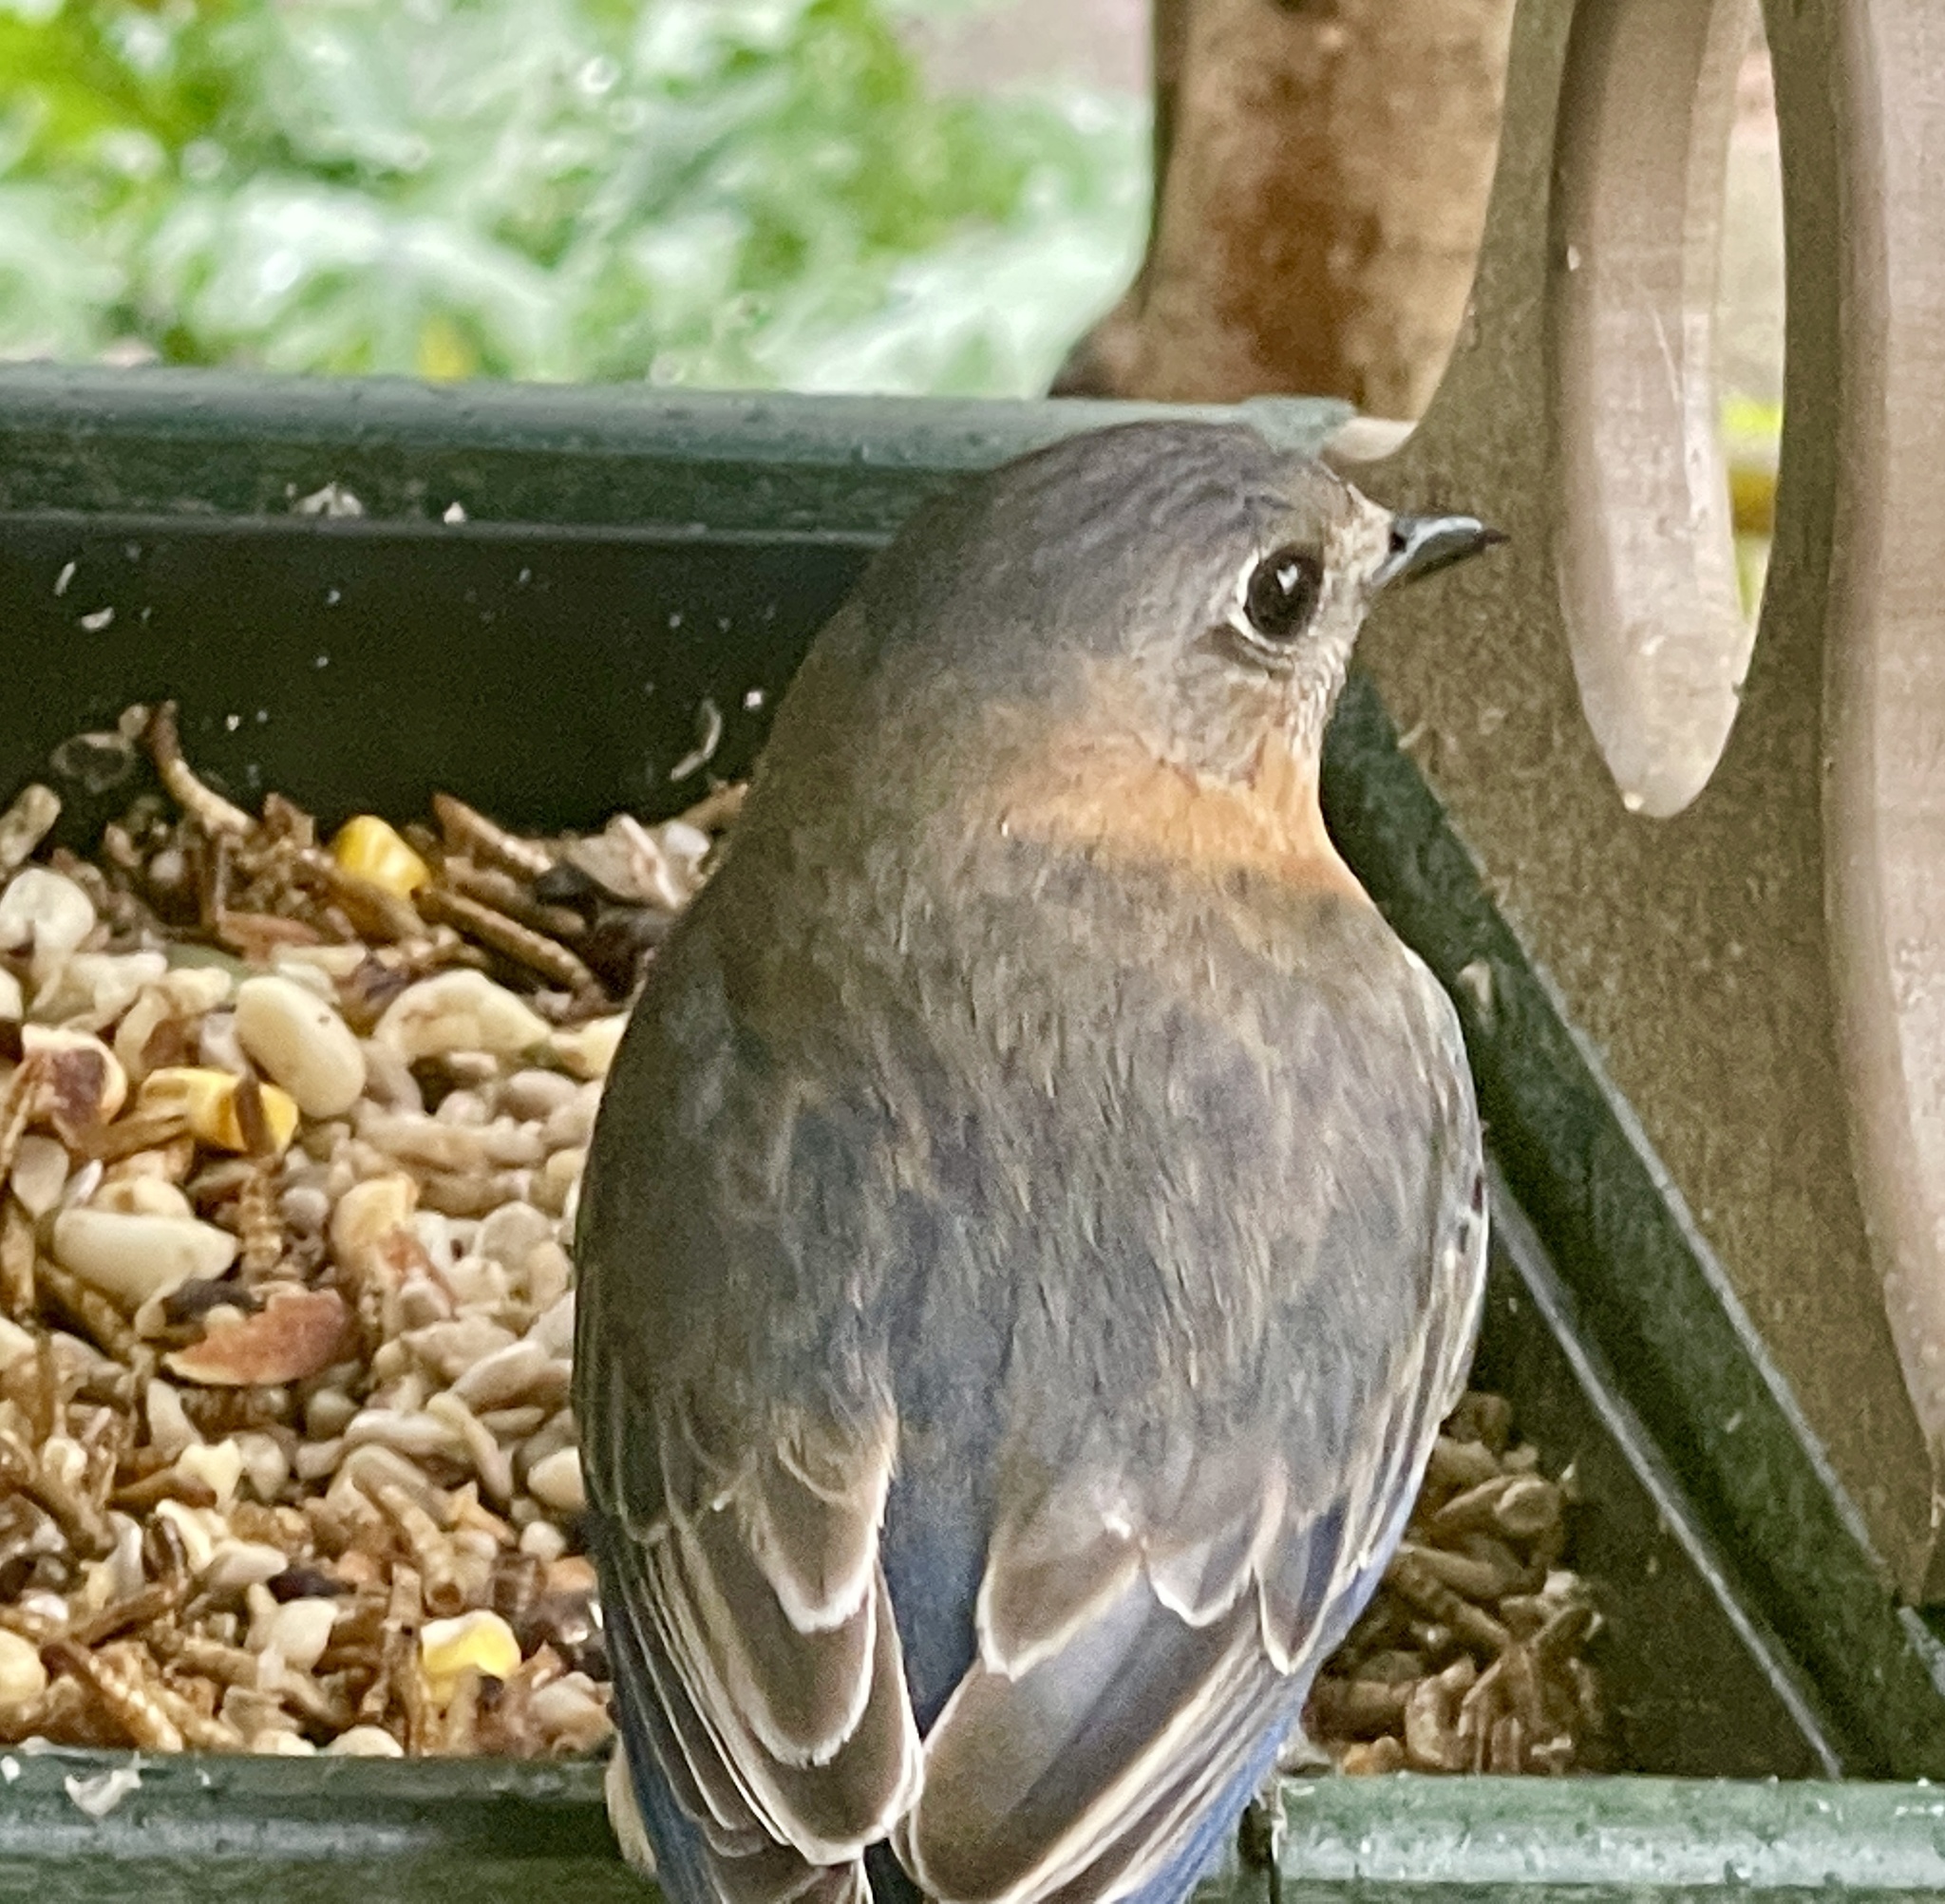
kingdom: Animalia
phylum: Chordata
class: Aves
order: Passeriformes
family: Turdidae
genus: Sialia
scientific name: Sialia sialis
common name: Eastern bluebird
